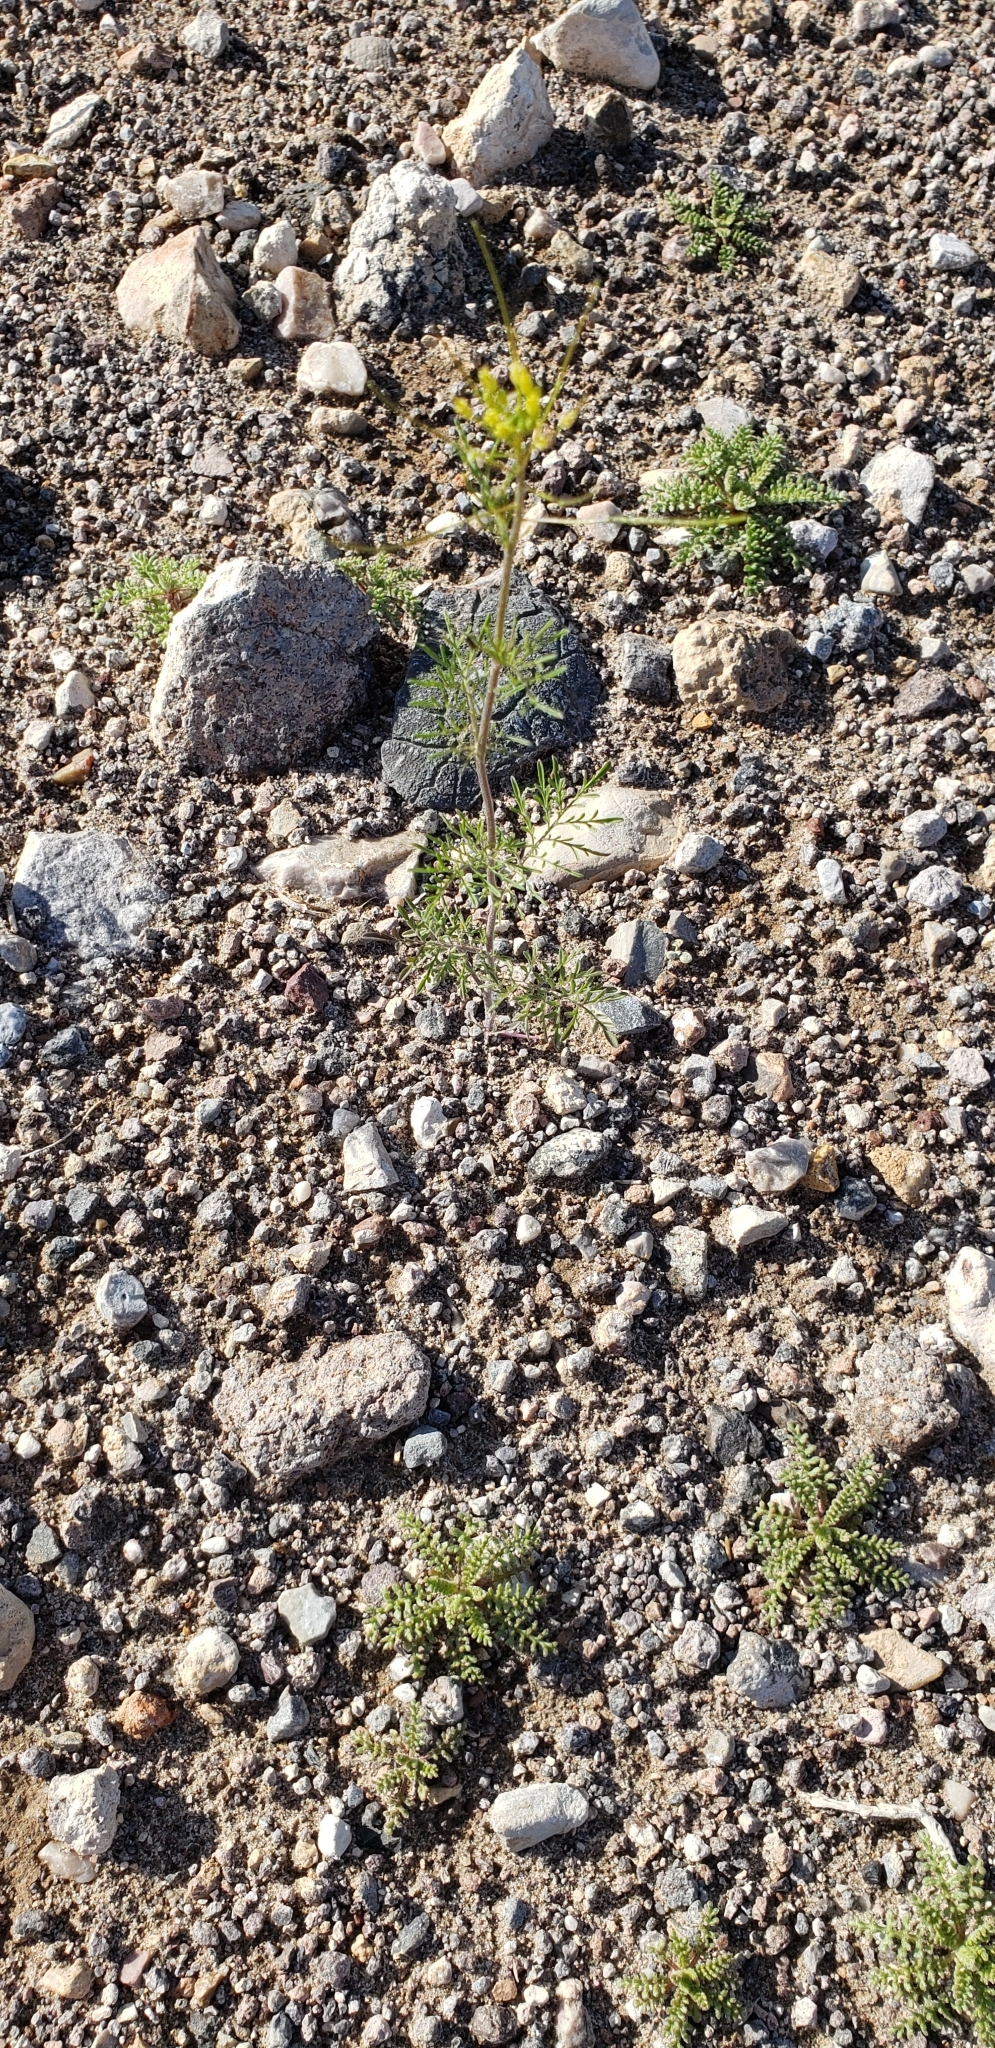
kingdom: Plantae
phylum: Tracheophyta
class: Magnoliopsida
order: Brassicales
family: Brassicaceae
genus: Descurainia
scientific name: Descurainia pinnata
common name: Western tansy mustard
